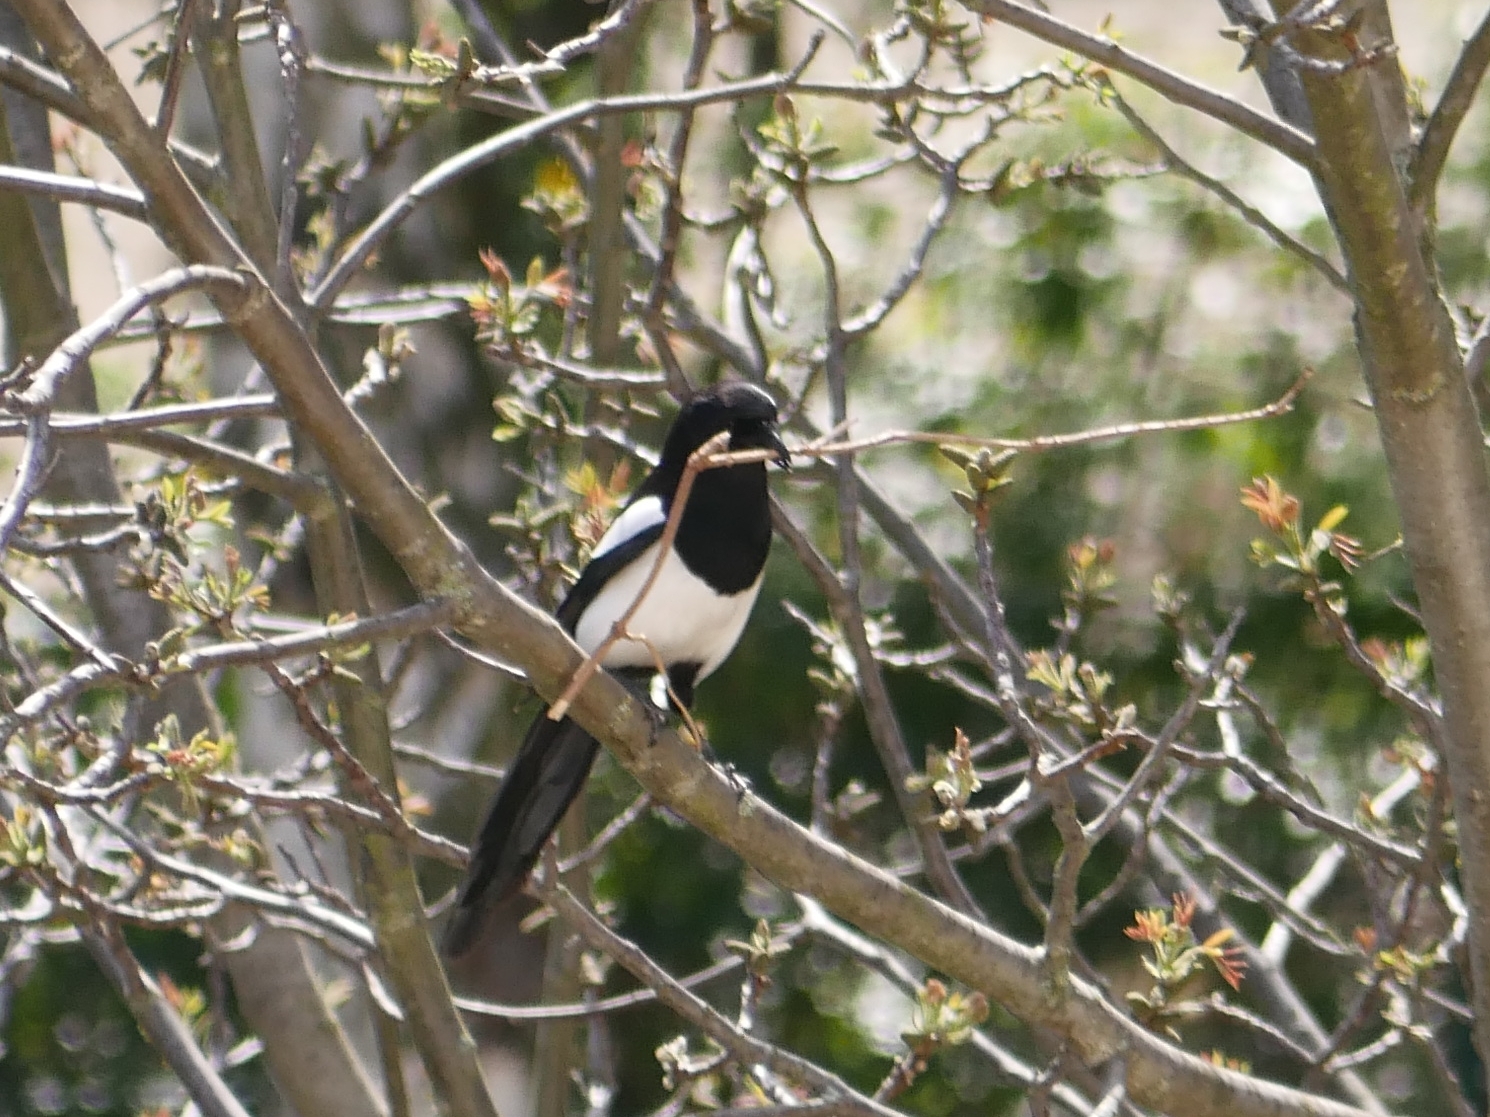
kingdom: Animalia
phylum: Chordata
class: Aves
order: Passeriformes
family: Corvidae
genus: Pica
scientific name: Pica pica
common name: Eurasian magpie
